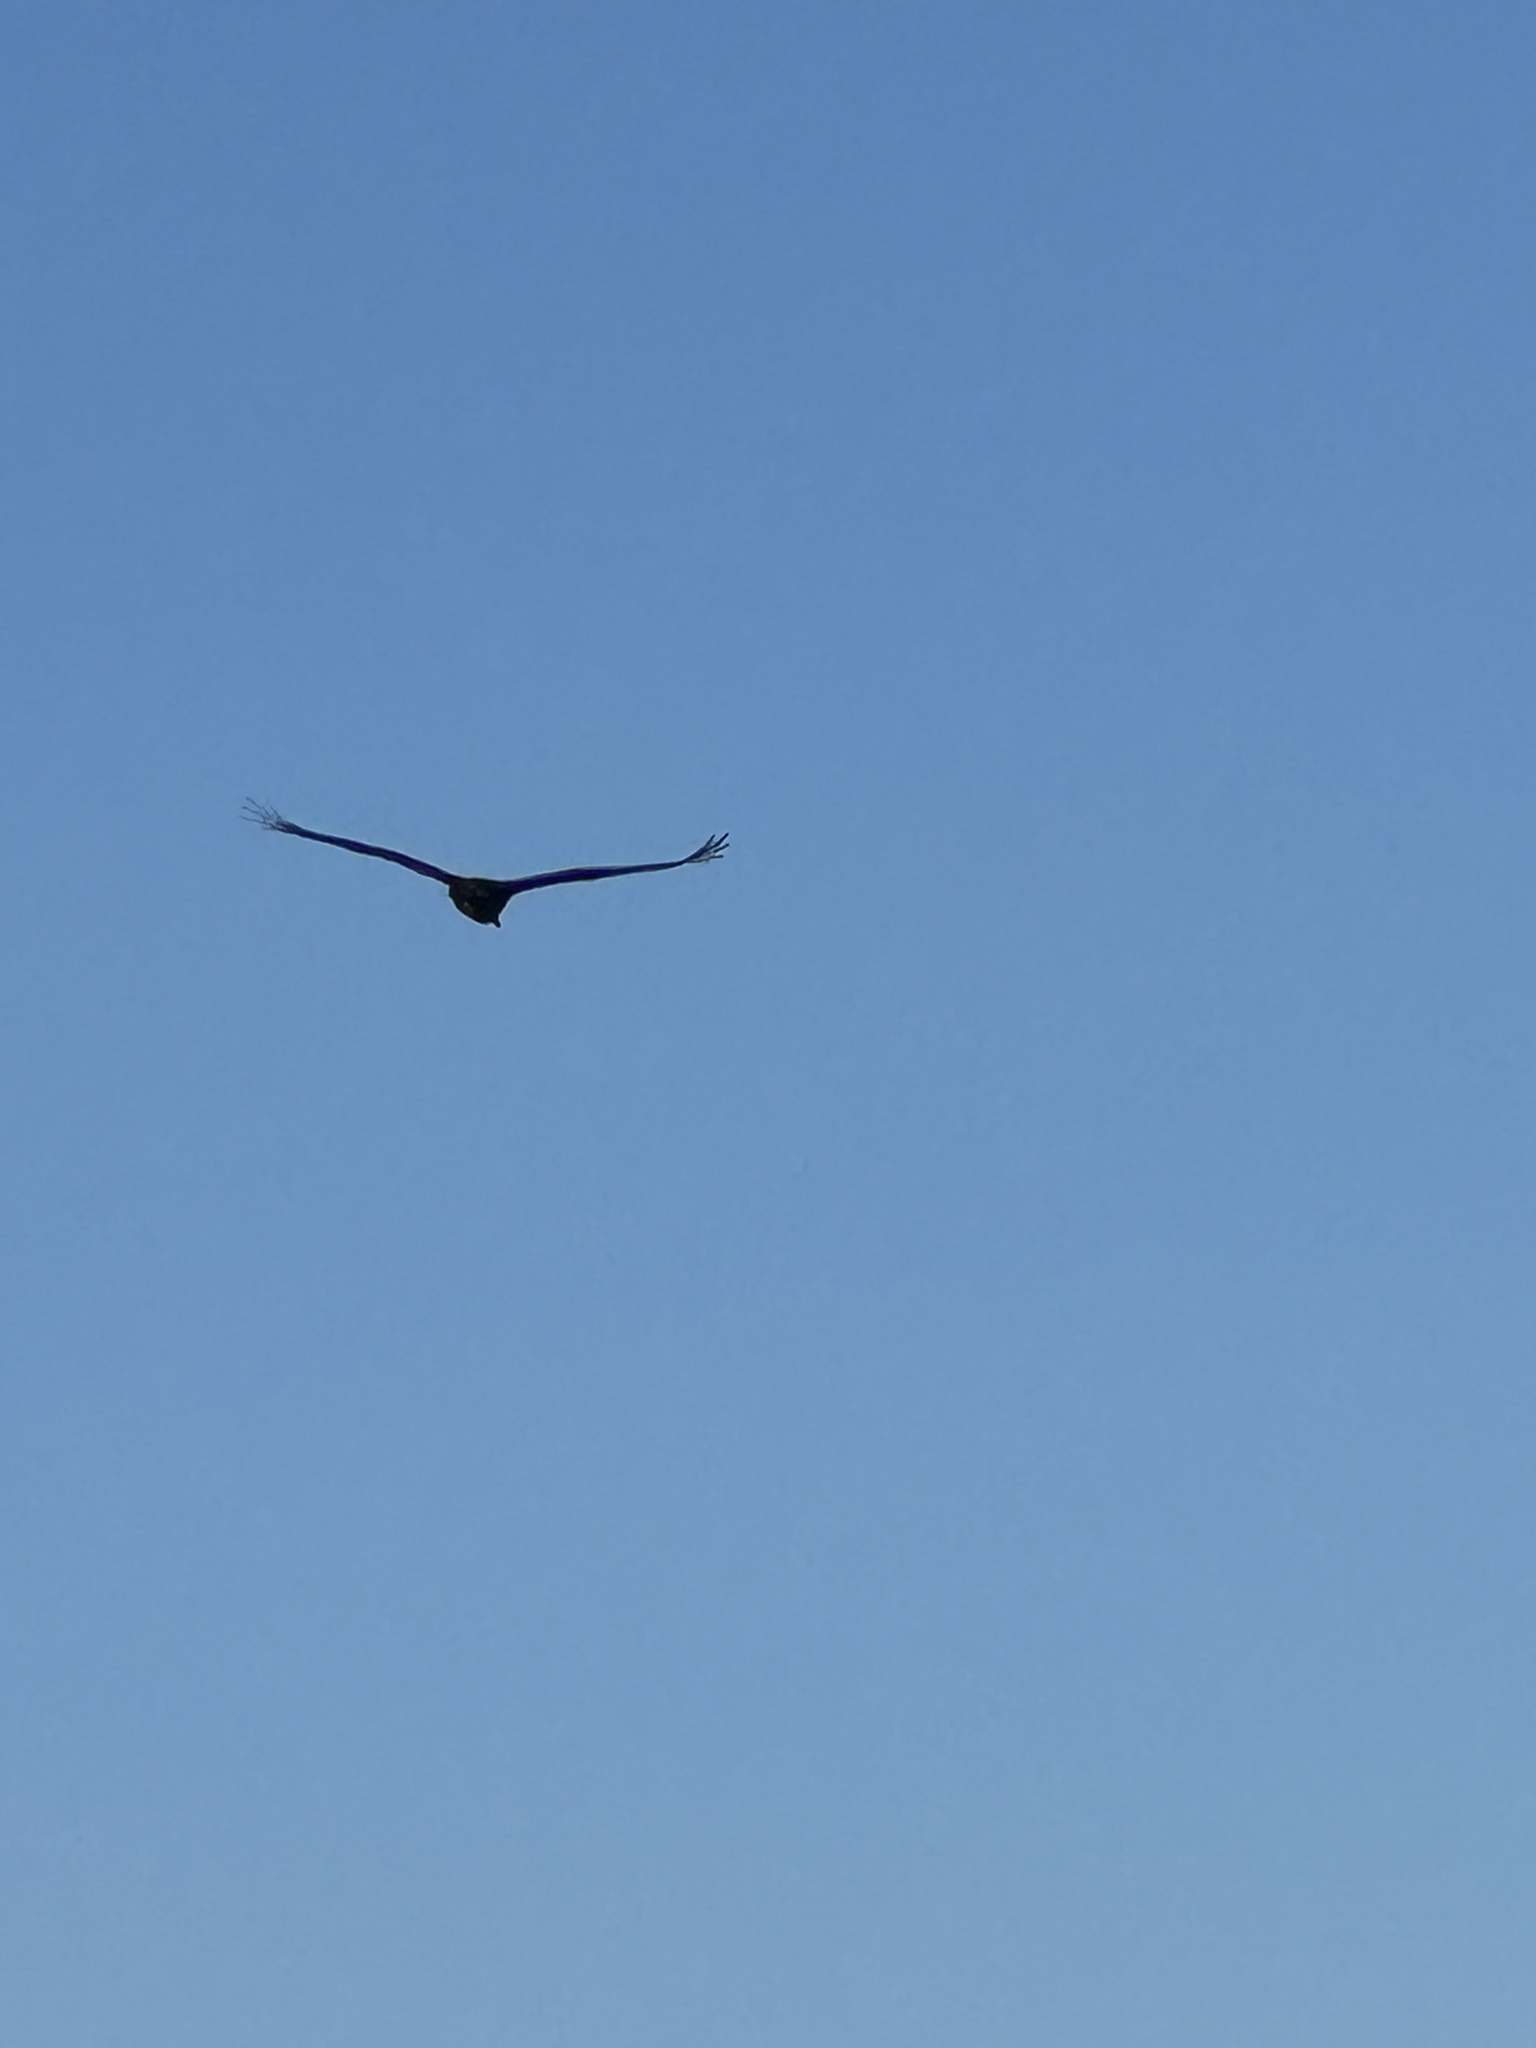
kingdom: Animalia
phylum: Chordata
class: Aves
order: Accipitriformes
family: Cathartidae
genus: Cathartes
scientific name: Cathartes aura
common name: Turkey vulture
